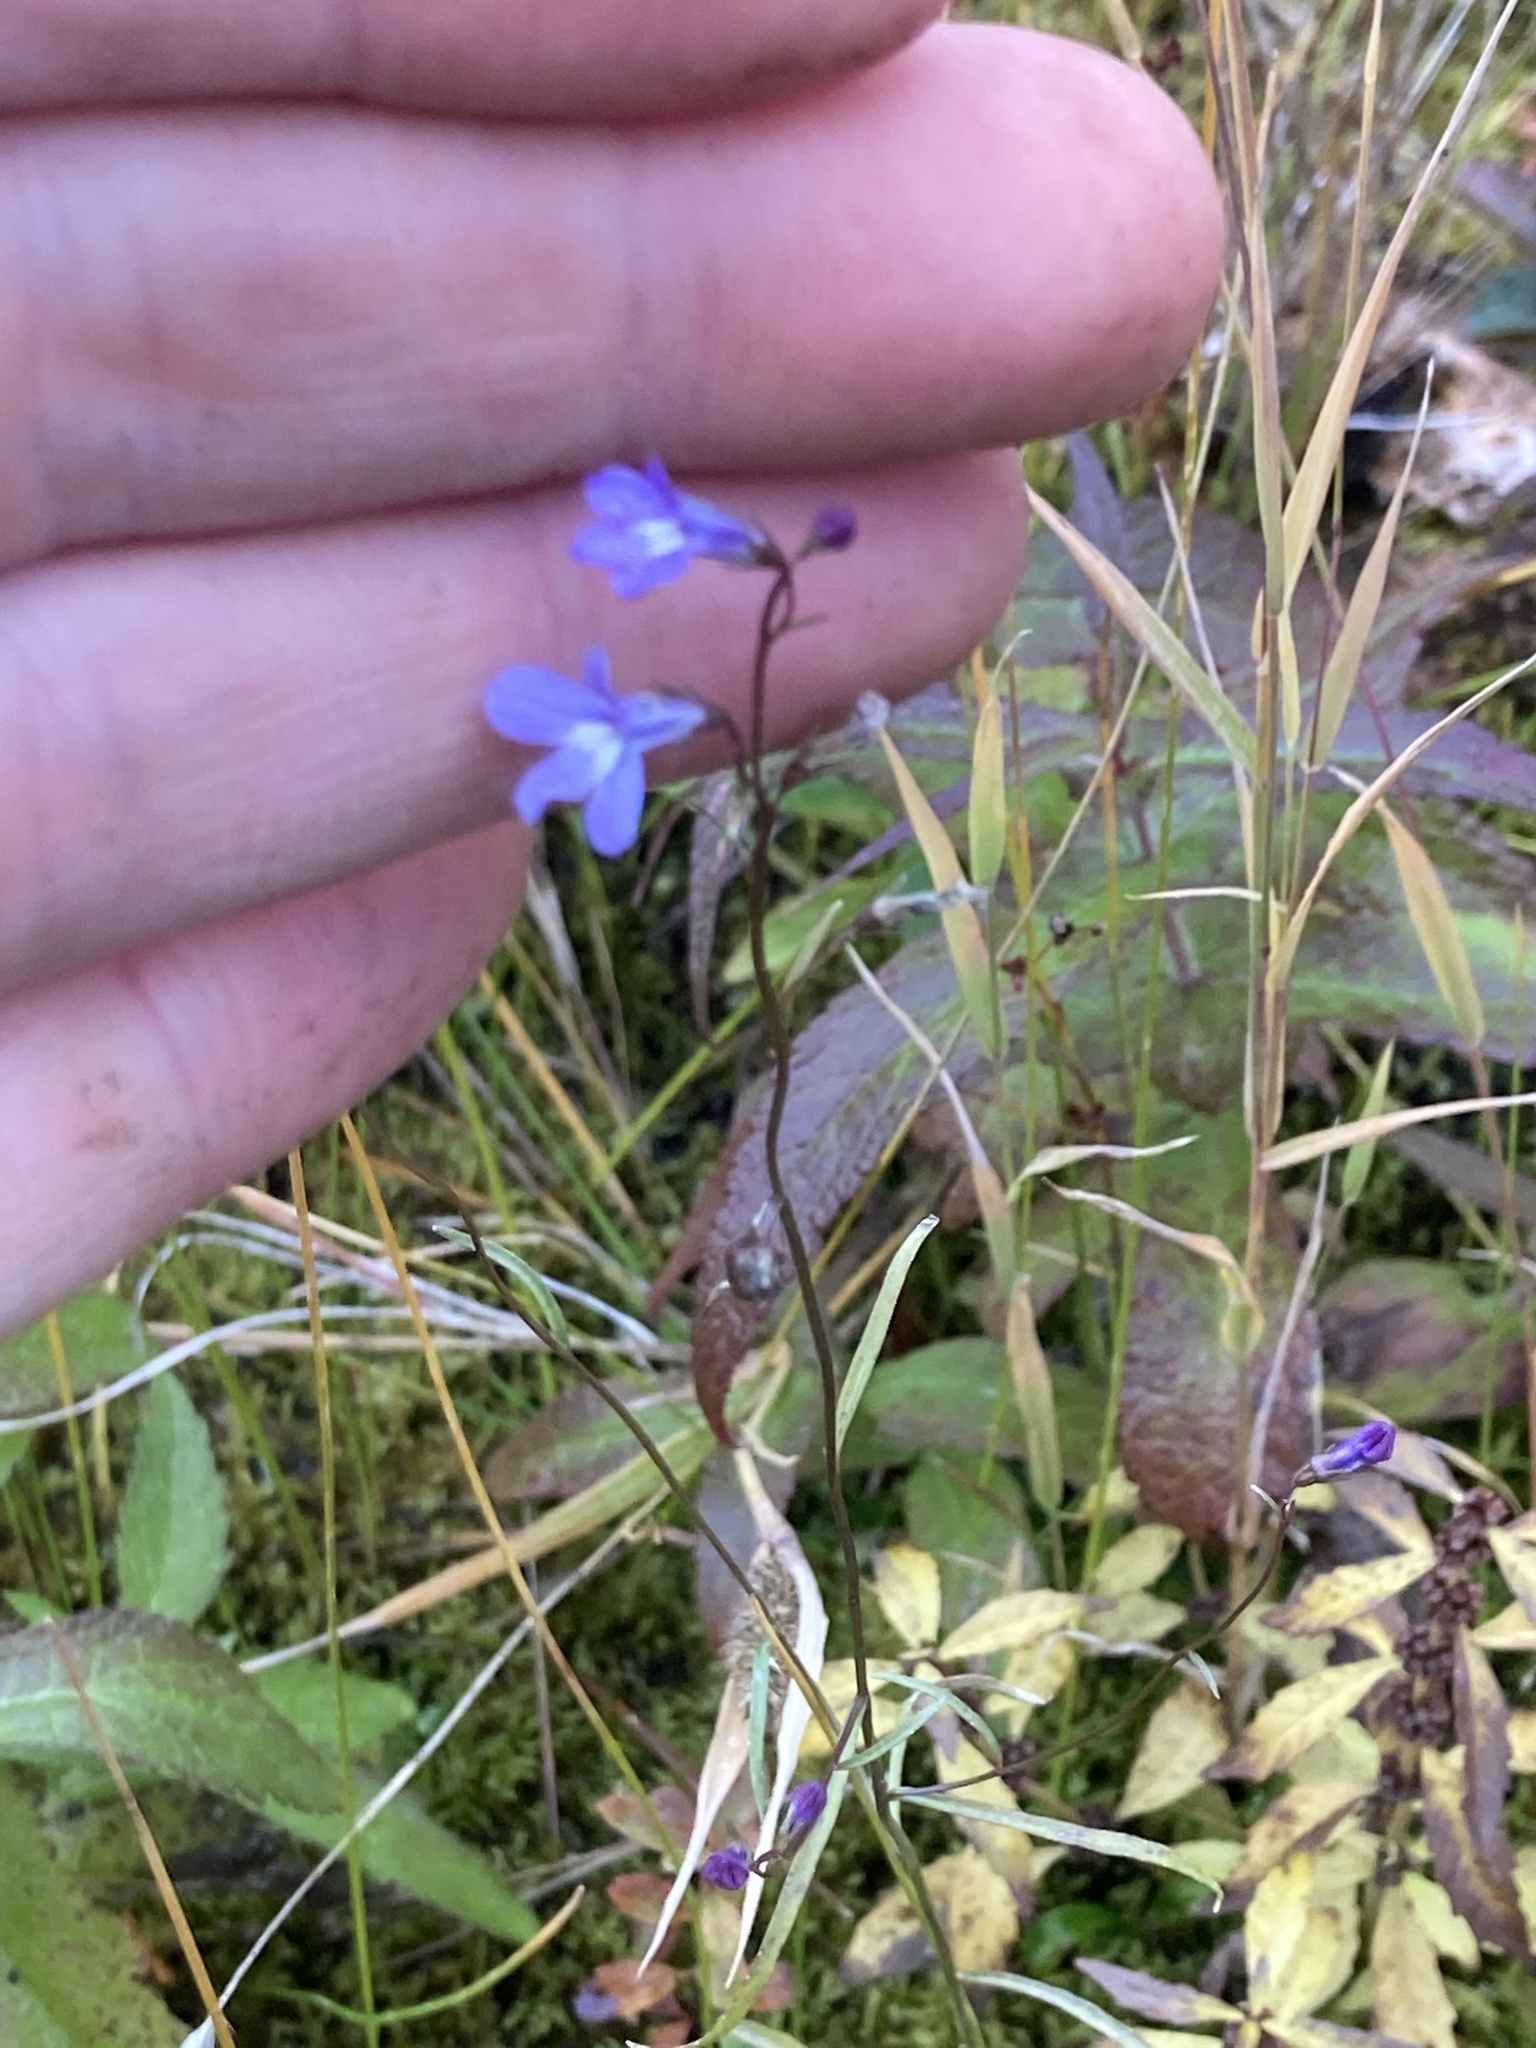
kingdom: Plantae
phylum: Tracheophyta
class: Magnoliopsida
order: Asterales
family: Campanulaceae
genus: Lobelia
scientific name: Lobelia kalmii
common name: Kalm's lobelia
